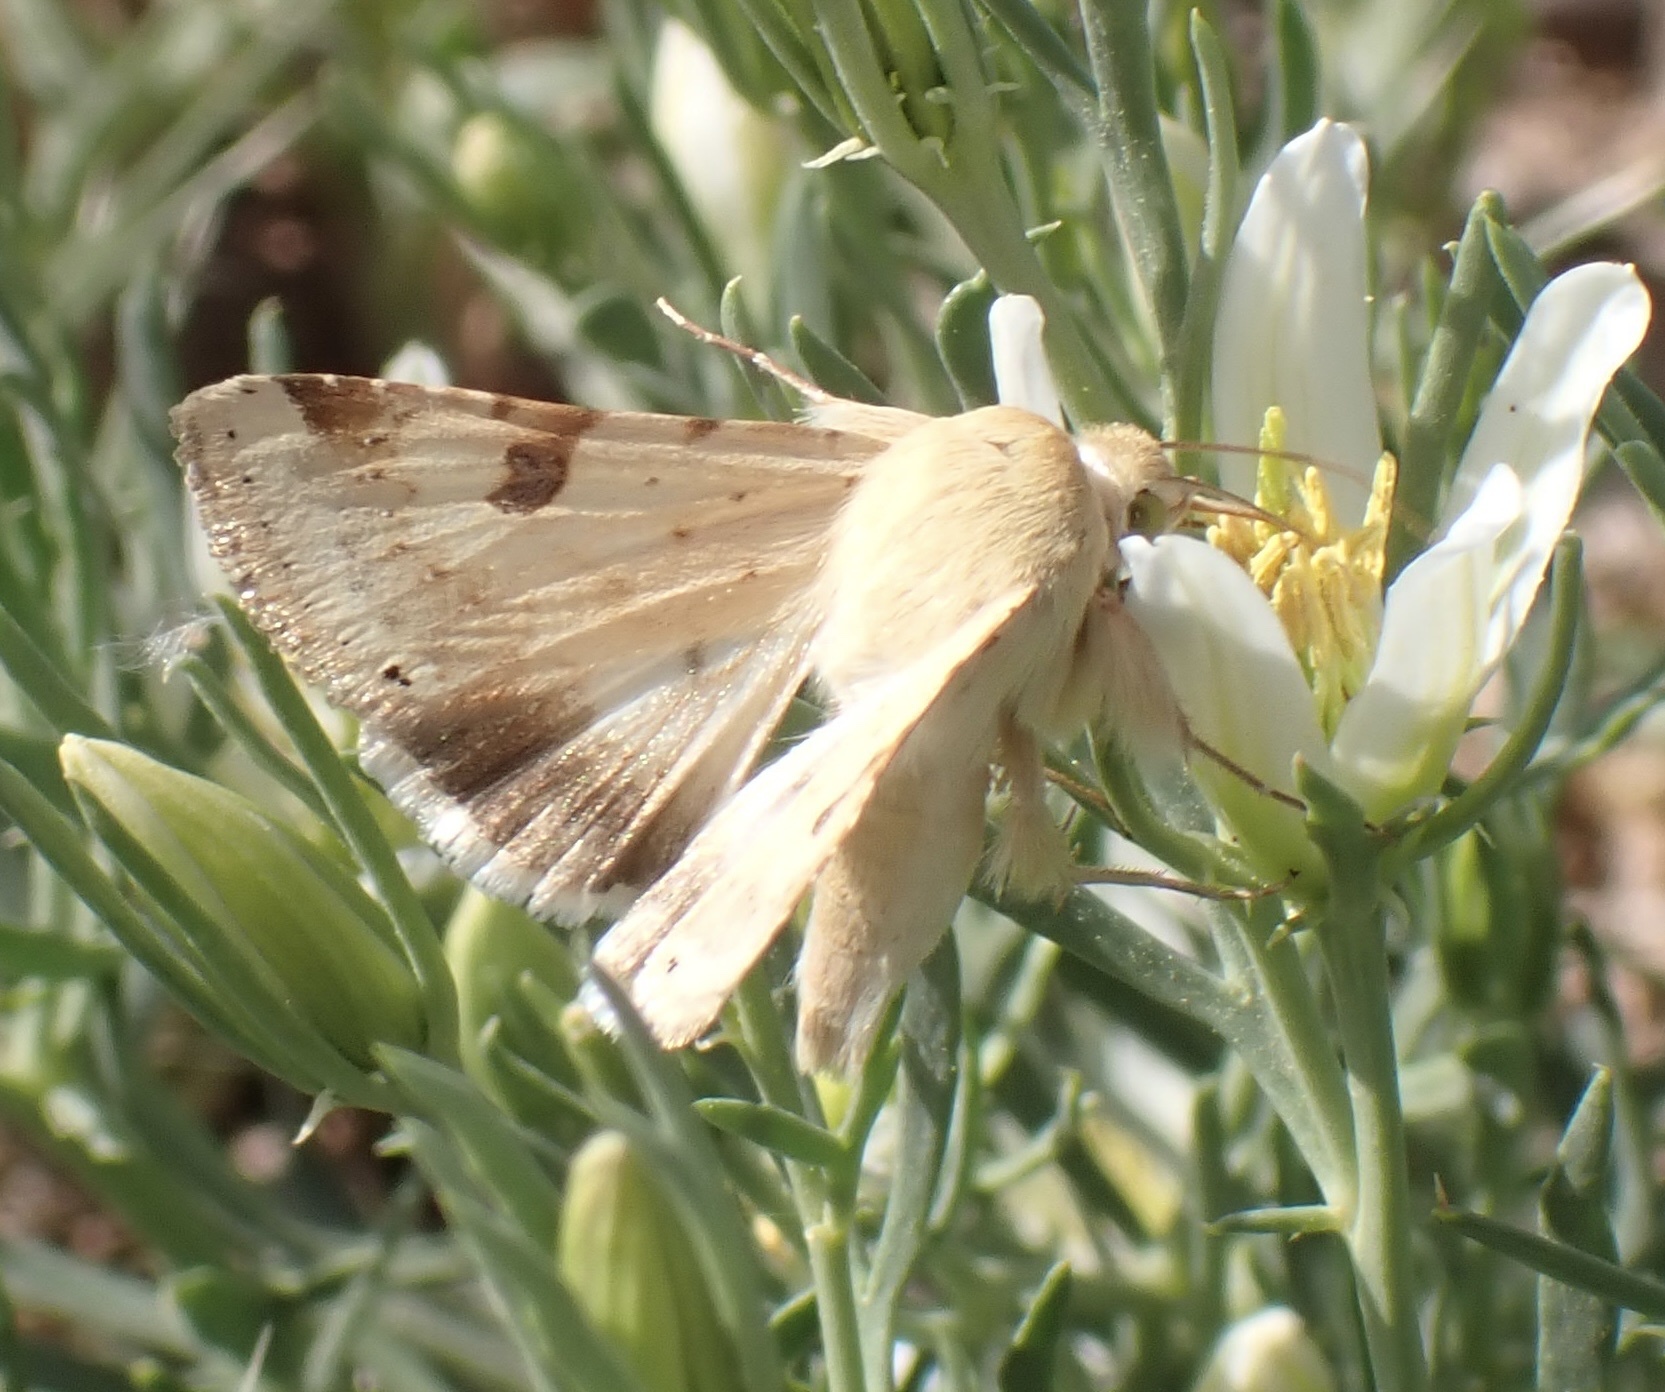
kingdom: Animalia
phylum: Arthropoda
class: Insecta
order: Lepidoptera
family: Noctuidae
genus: Heliothis
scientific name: Heliothis peltigera
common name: Bordered straw
